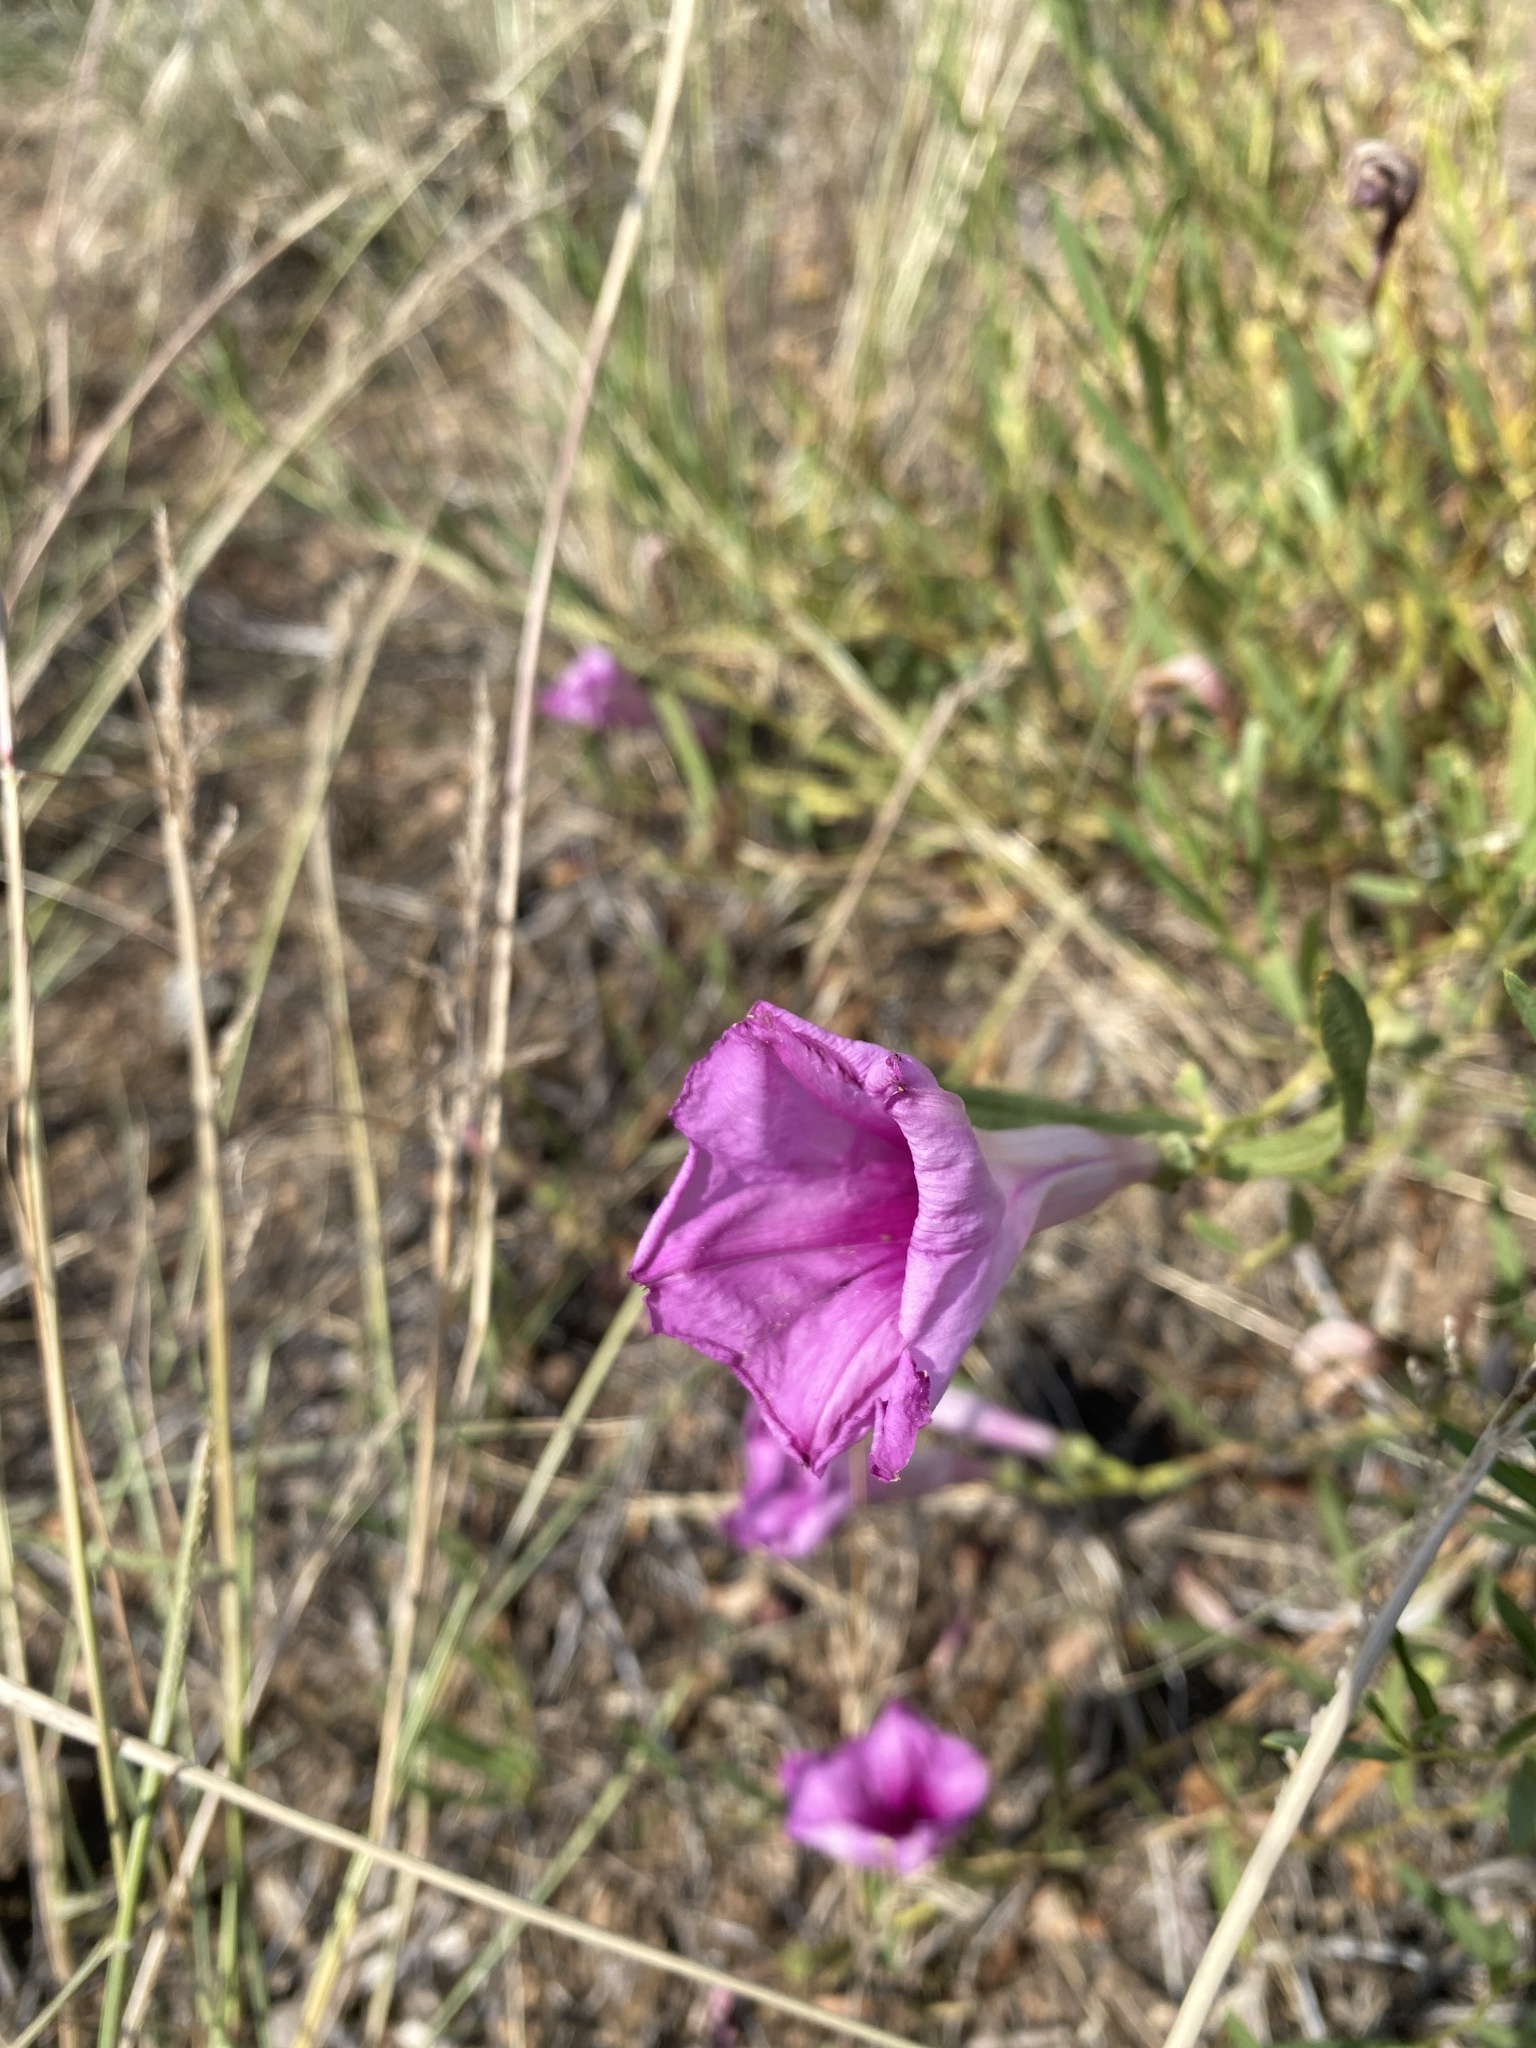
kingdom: Plantae
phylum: Tracheophyta
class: Magnoliopsida
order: Solanales
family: Convolvulaceae
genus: Ipomoea
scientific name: Ipomoea leptophylla
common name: Bush moonflower
